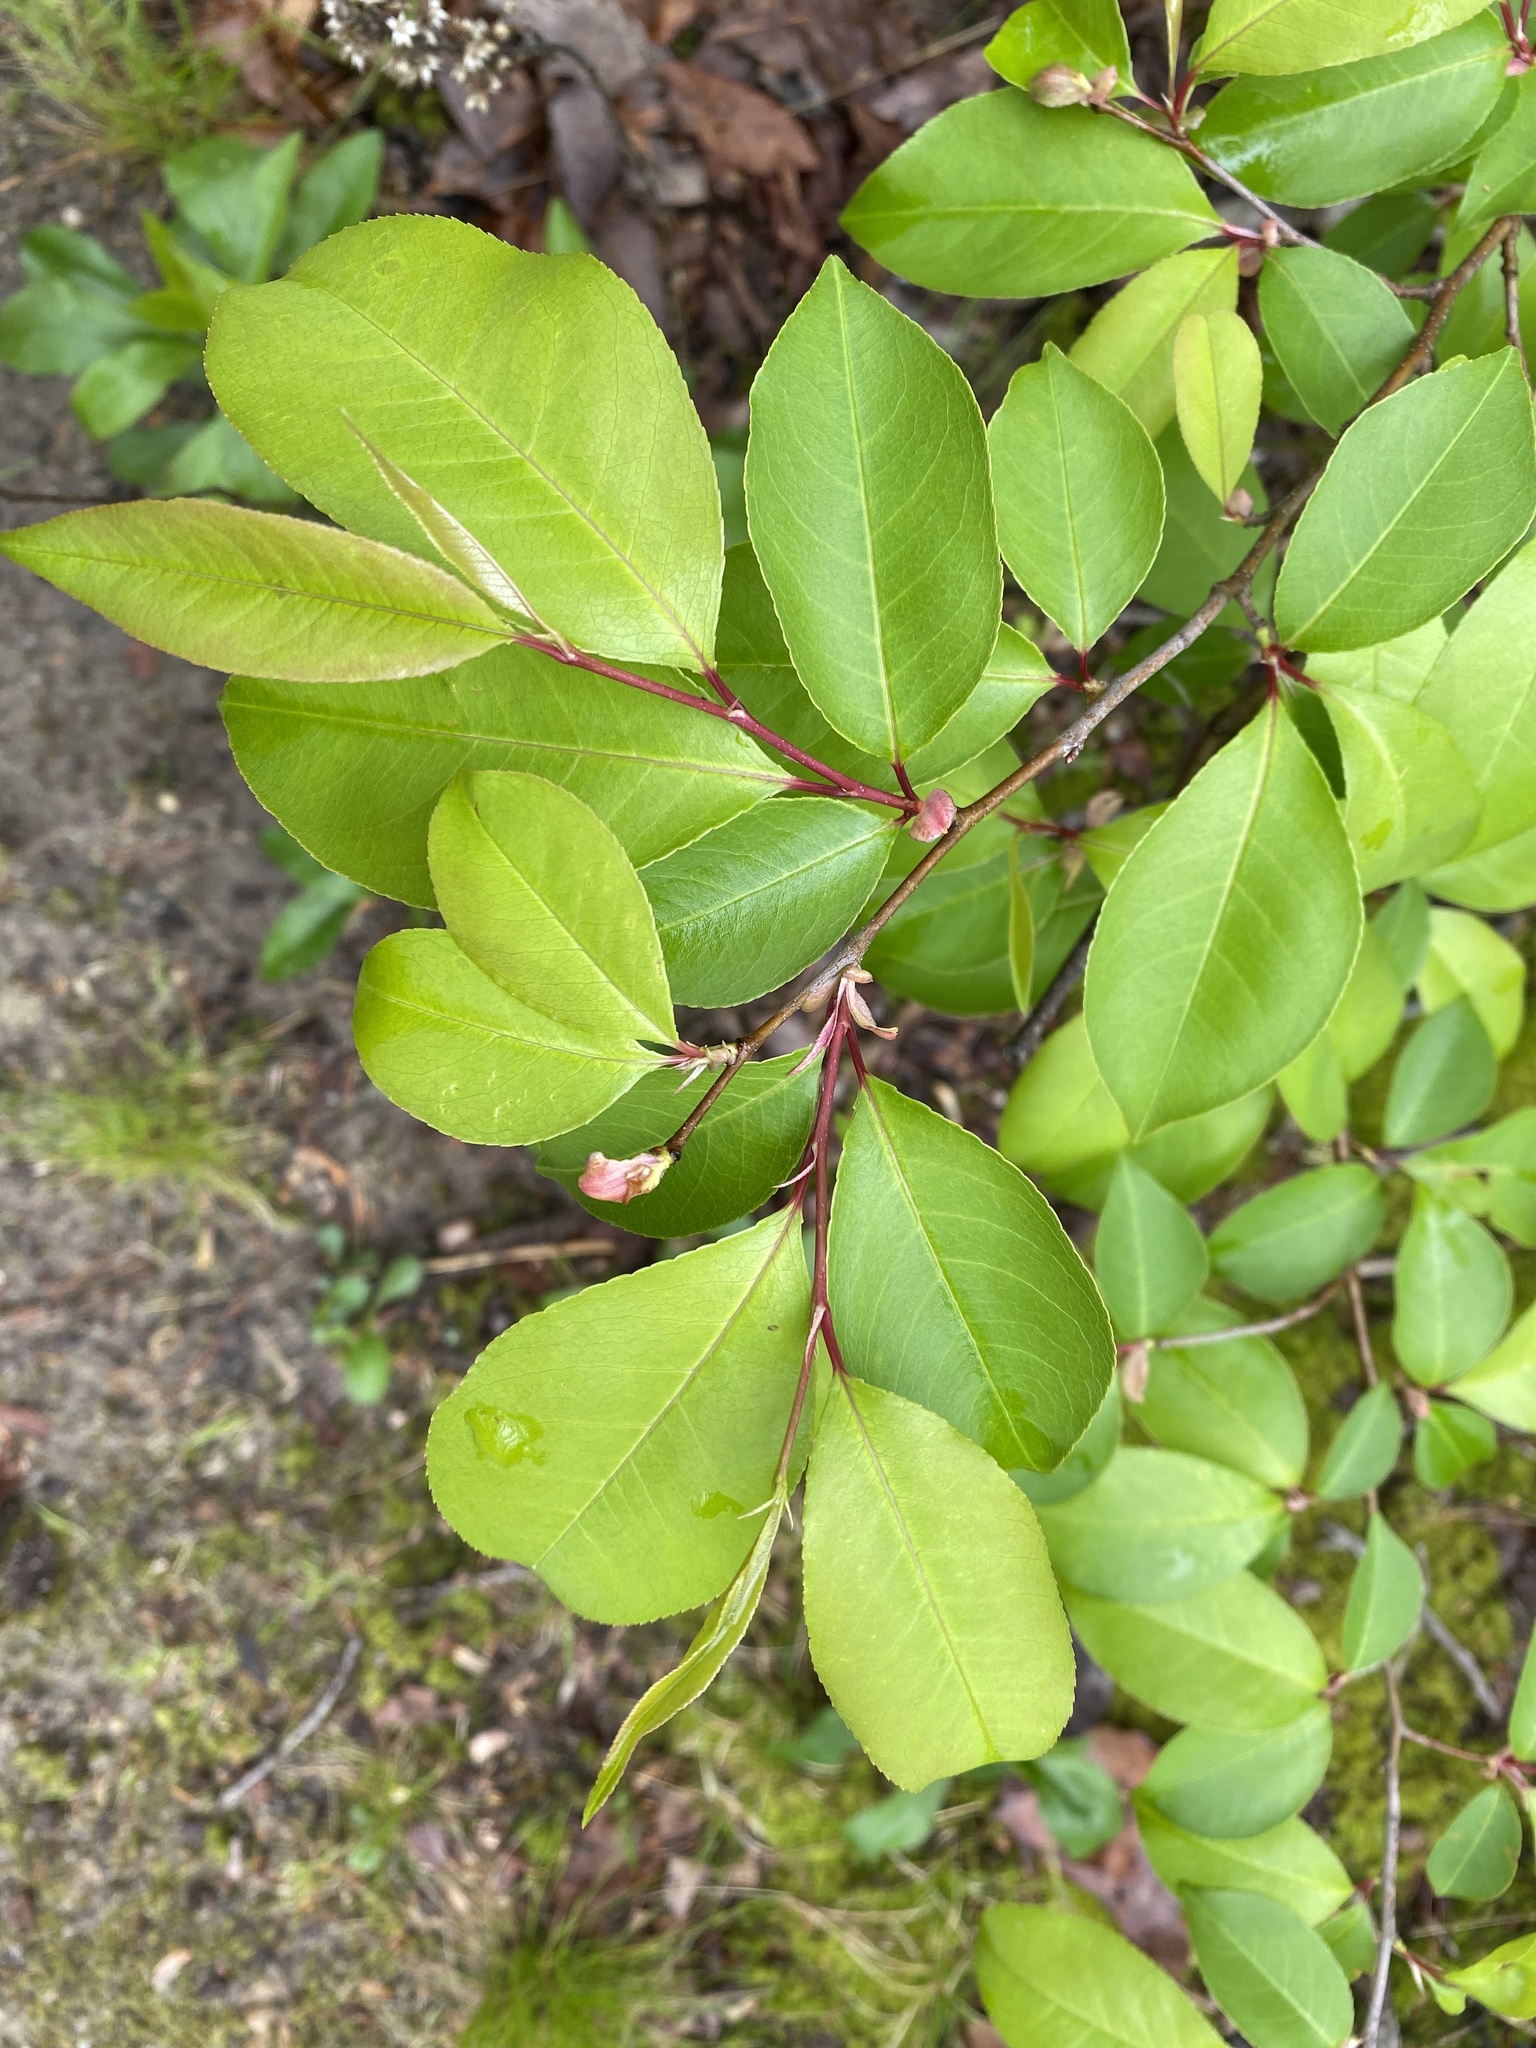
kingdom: Plantae
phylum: Tracheophyta
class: Magnoliopsida
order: Rosales
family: Rosaceae
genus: Prunus
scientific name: Prunus serotina
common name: Black cherry
